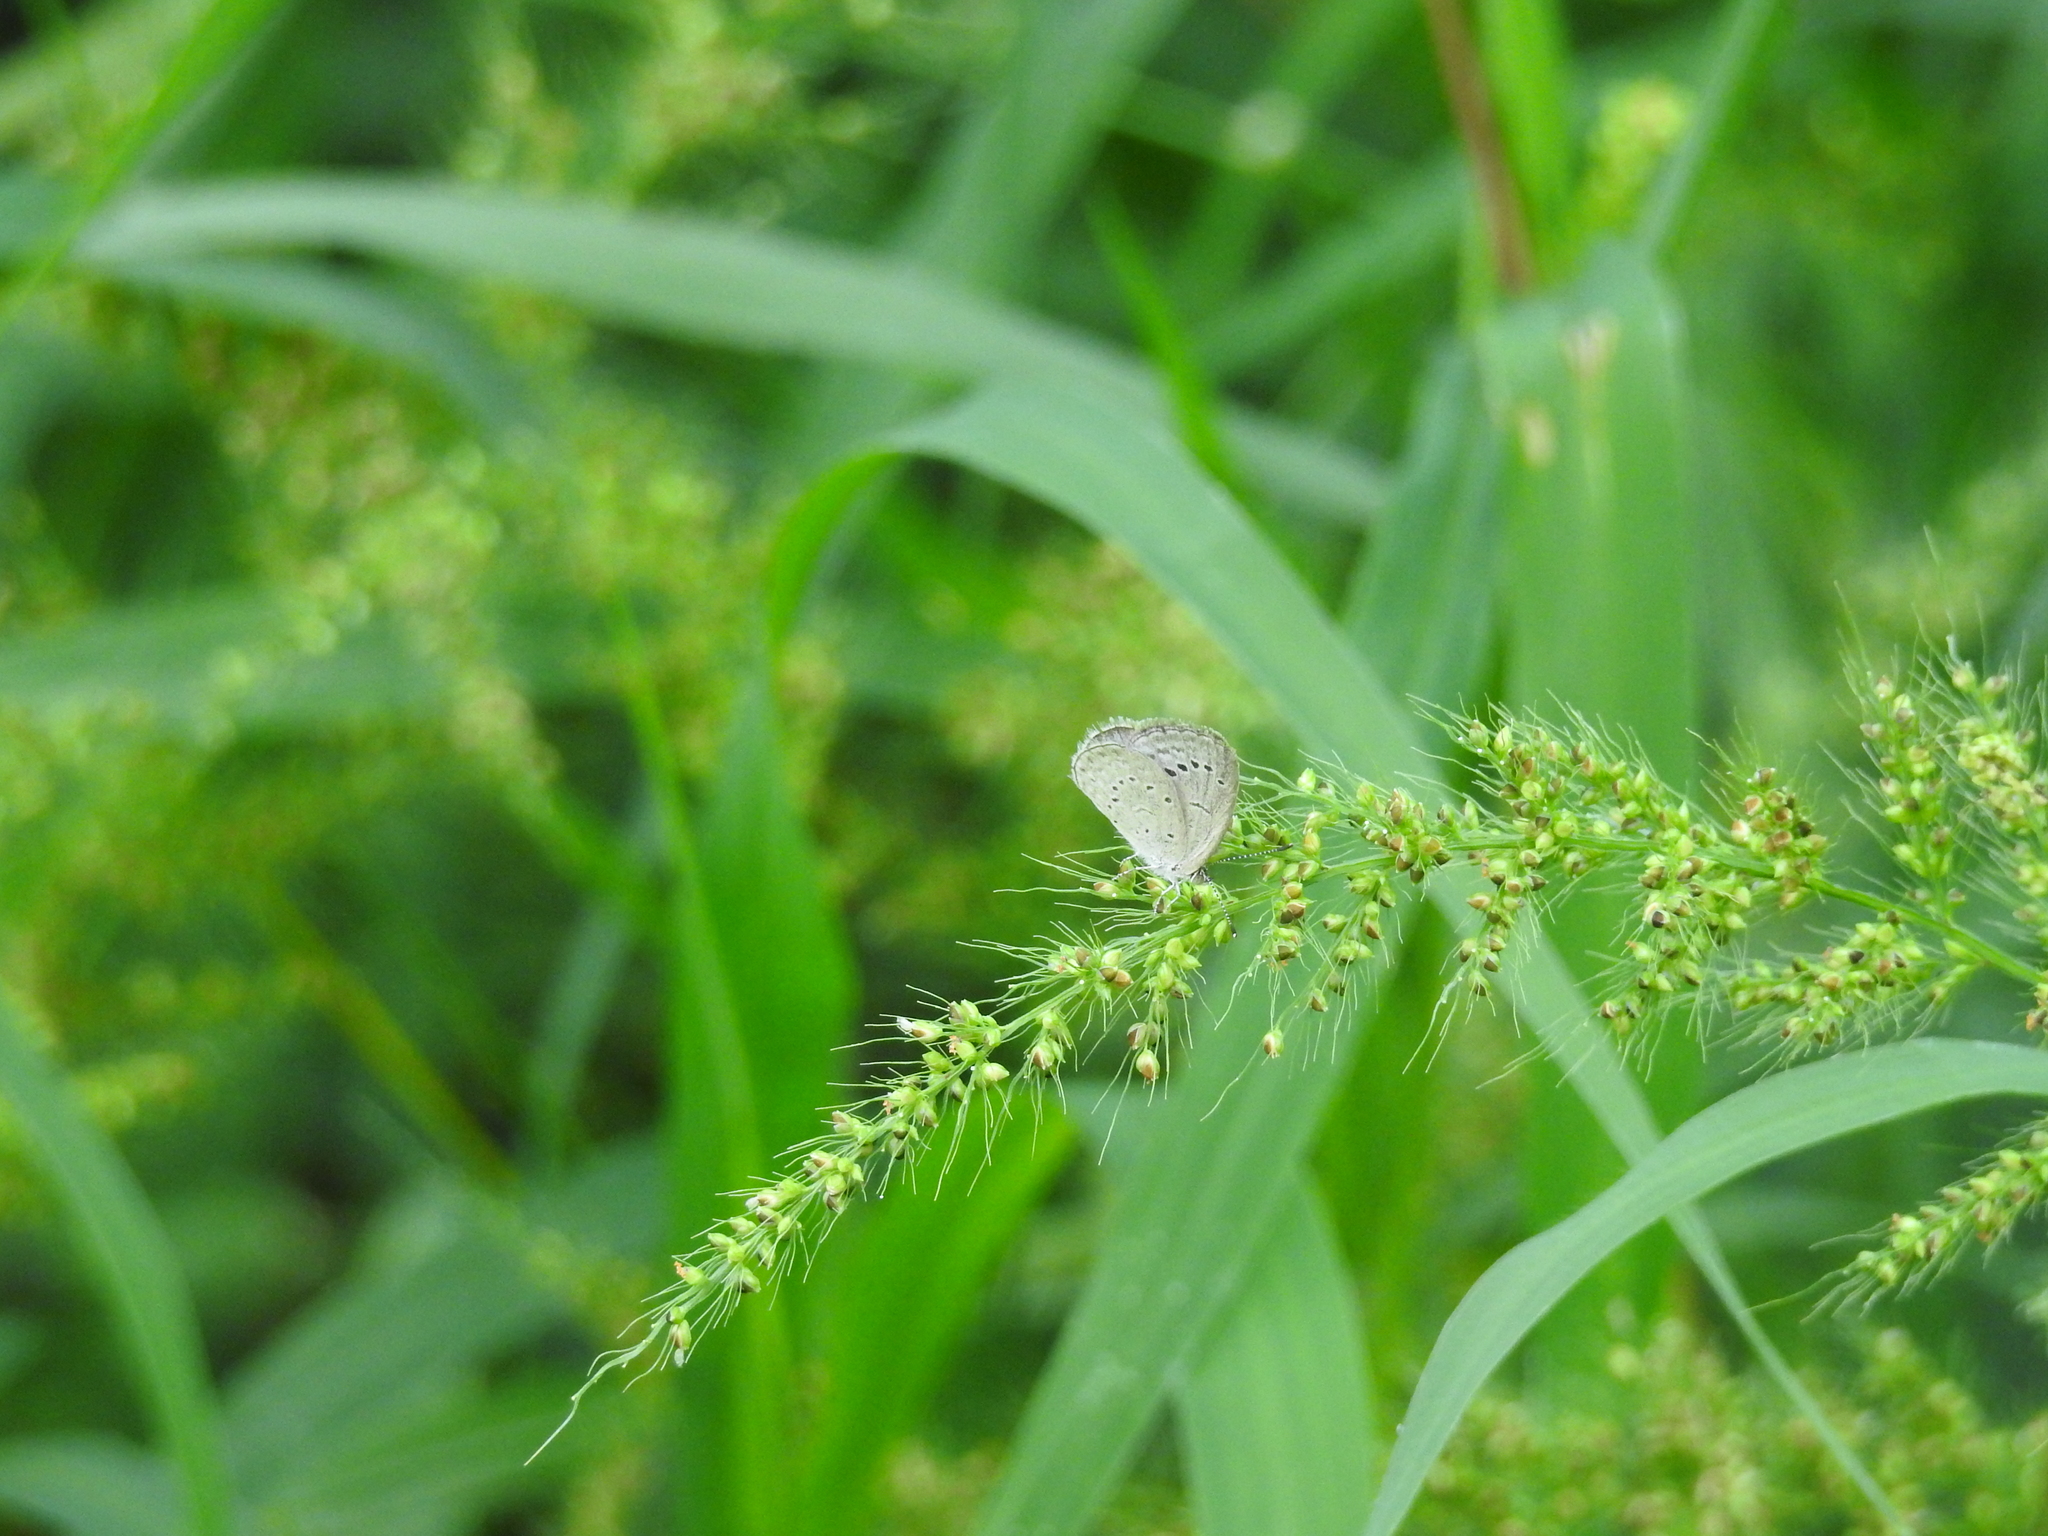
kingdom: Animalia
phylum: Arthropoda
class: Insecta
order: Lepidoptera
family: Lycaenidae
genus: Pseudozizeeria
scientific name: Pseudozizeeria maha
